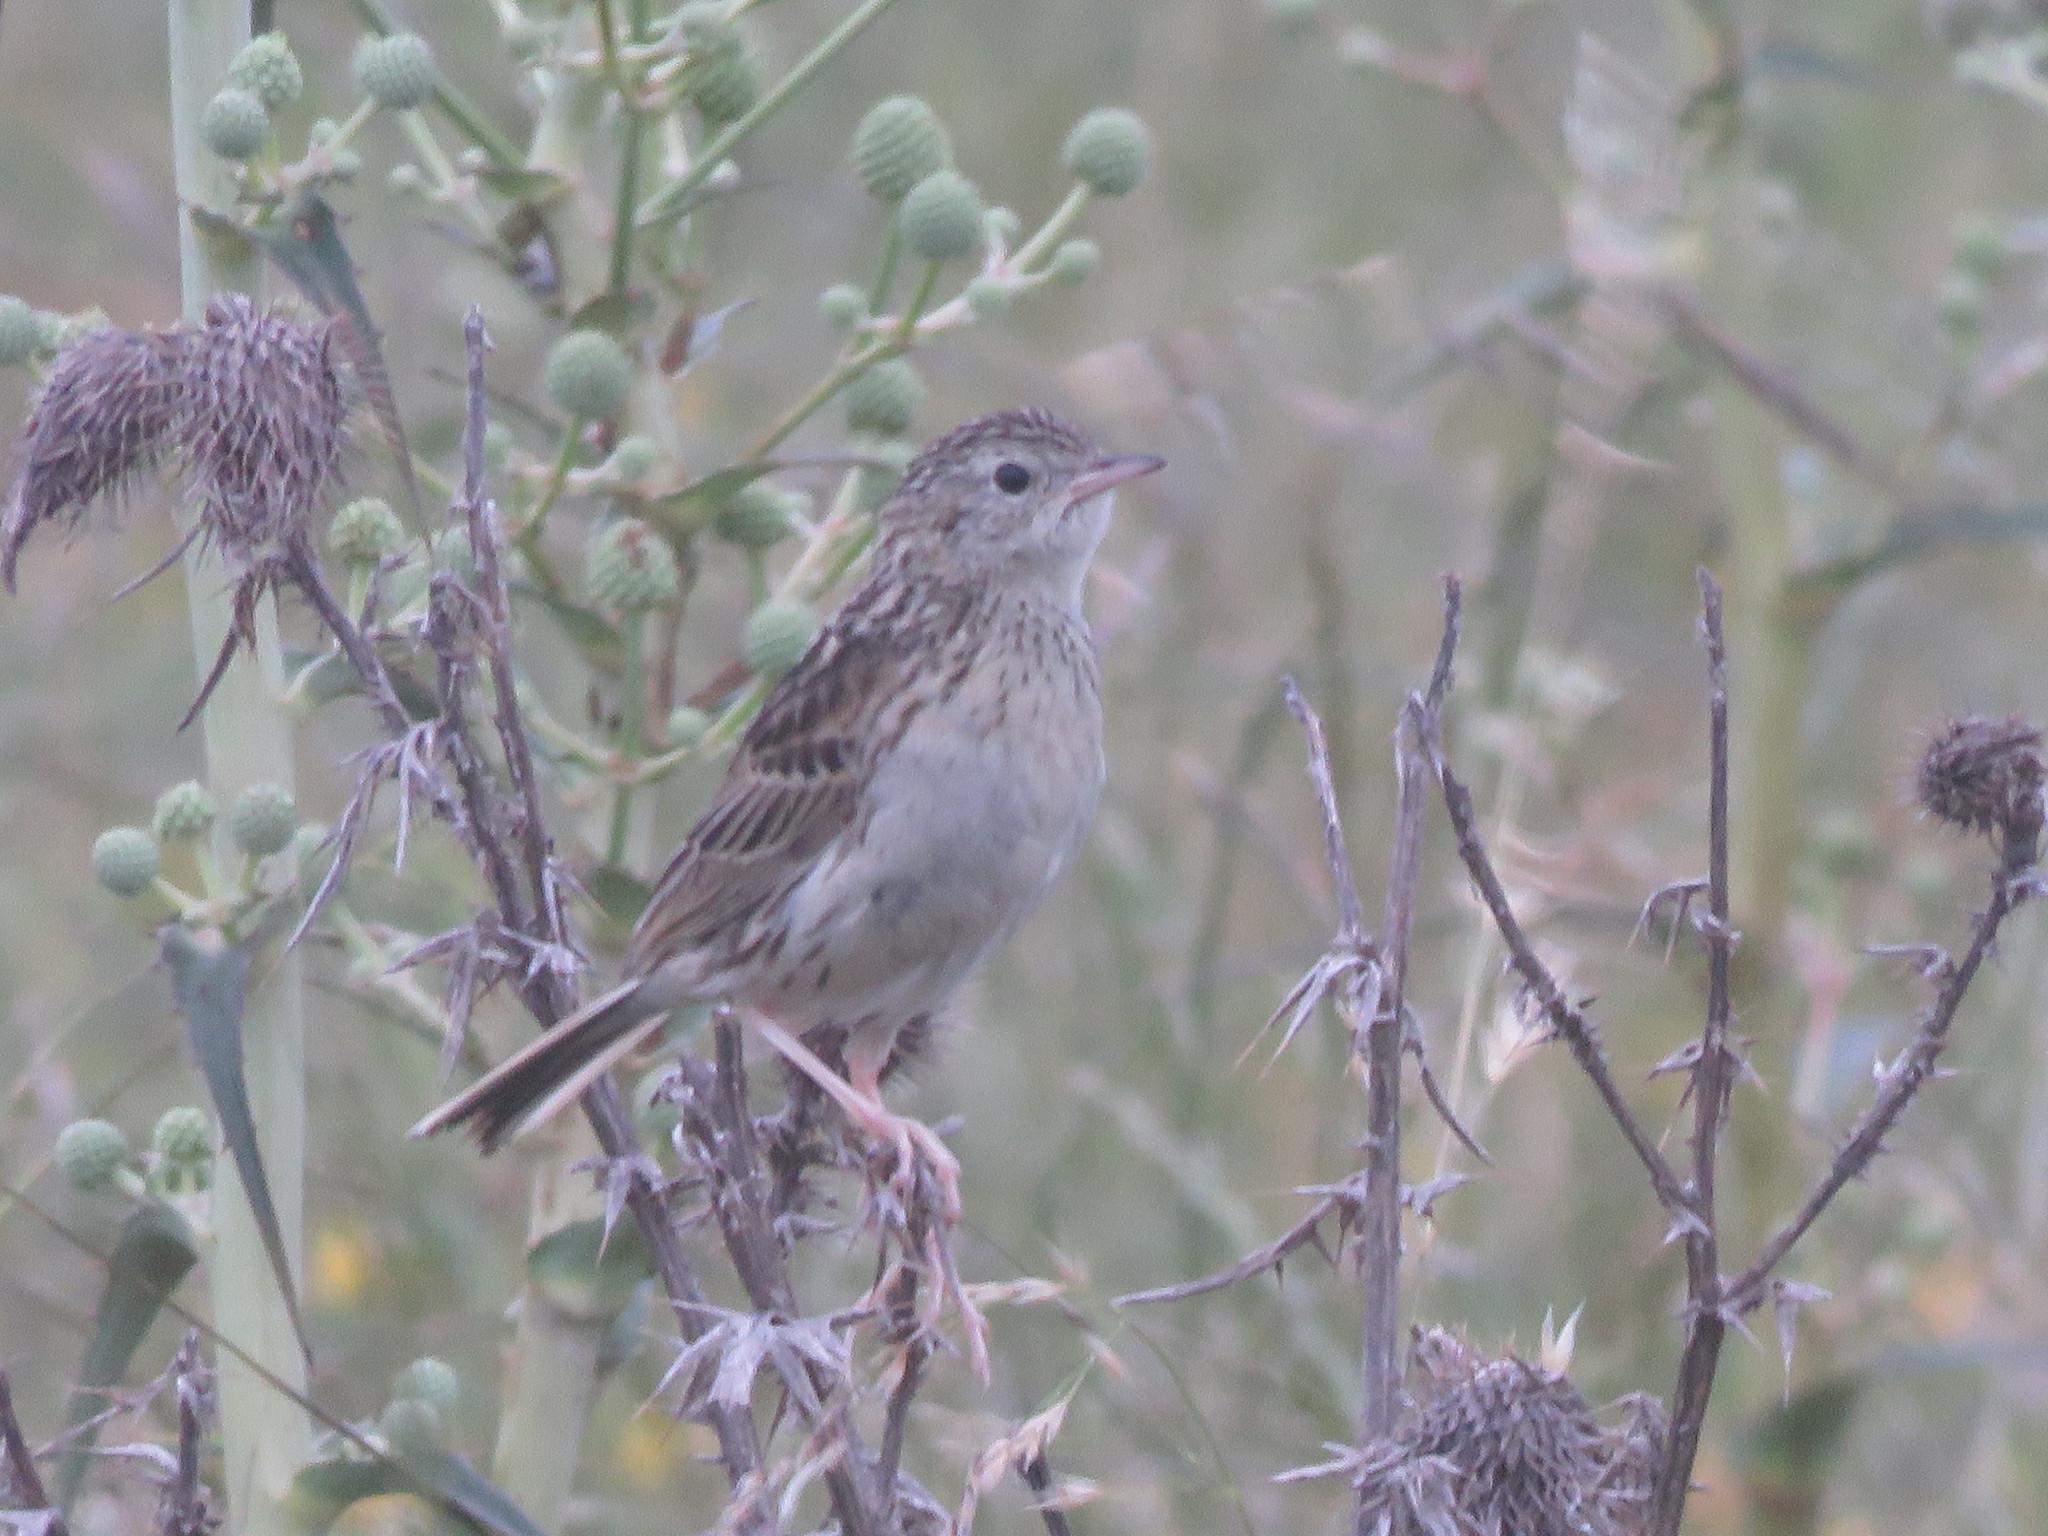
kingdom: Animalia
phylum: Chordata
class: Aves
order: Passeriformes
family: Motacillidae
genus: Anthus
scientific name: Anthus hellmayri
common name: Hellmayr's pipit
